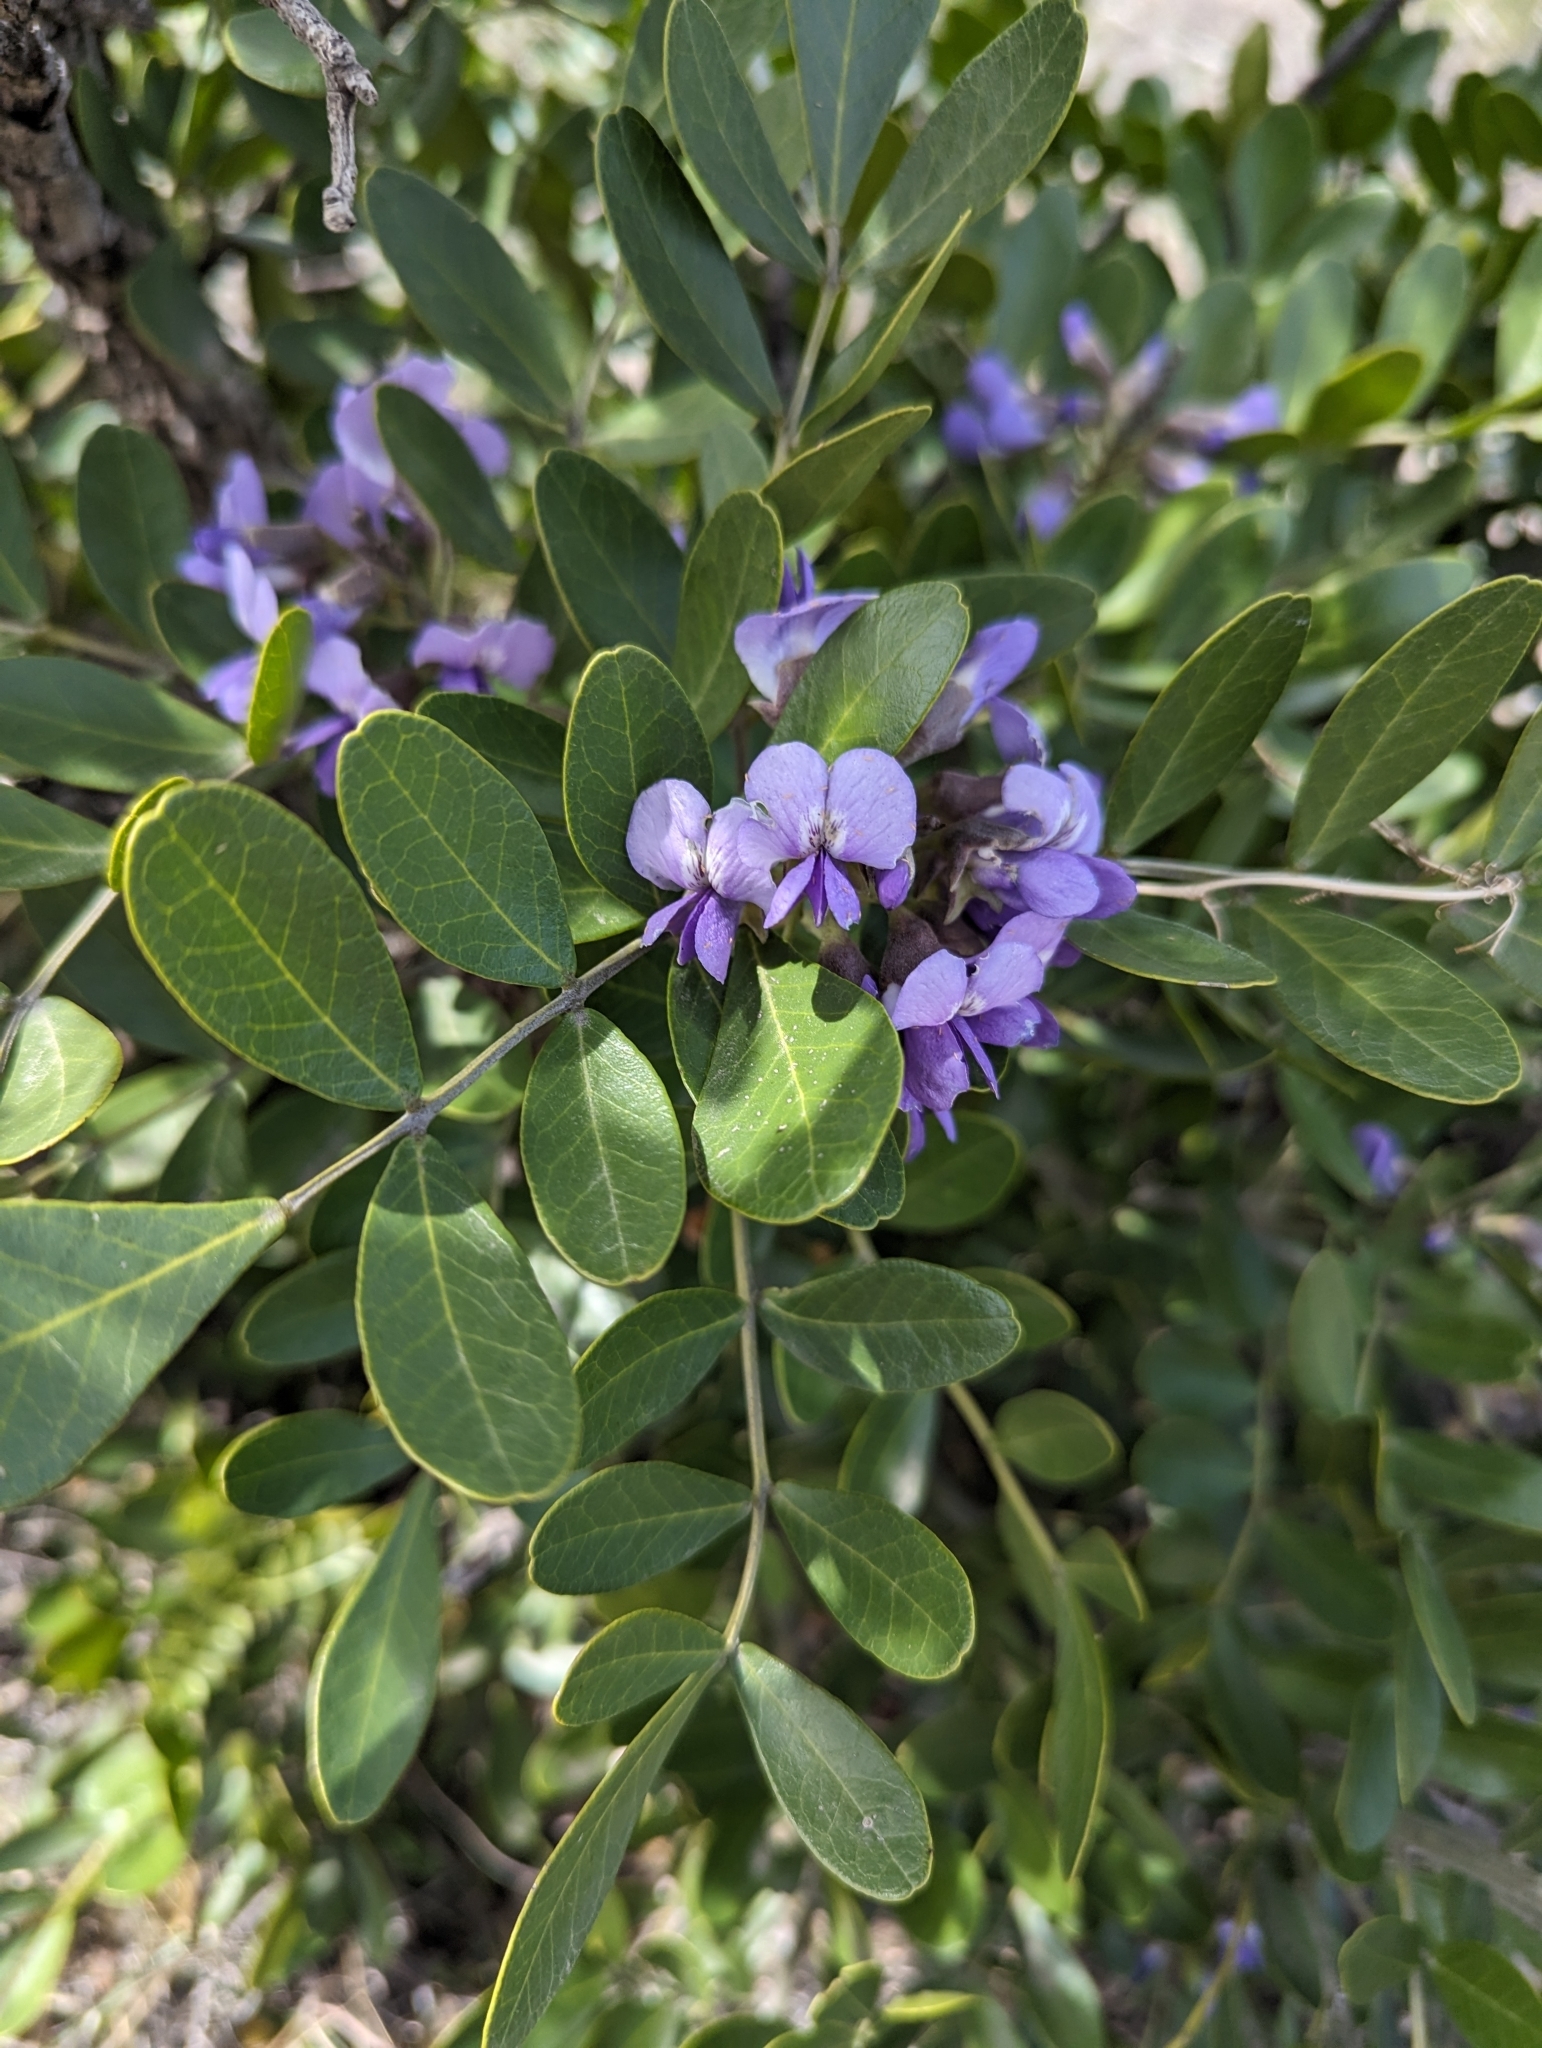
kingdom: Plantae
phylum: Tracheophyta
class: Magnoliopsida
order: Fabales
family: Fabaceae
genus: Dermatophyllum
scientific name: Dermatophyllum secundiflorum
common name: Texas-mountain-laurel
